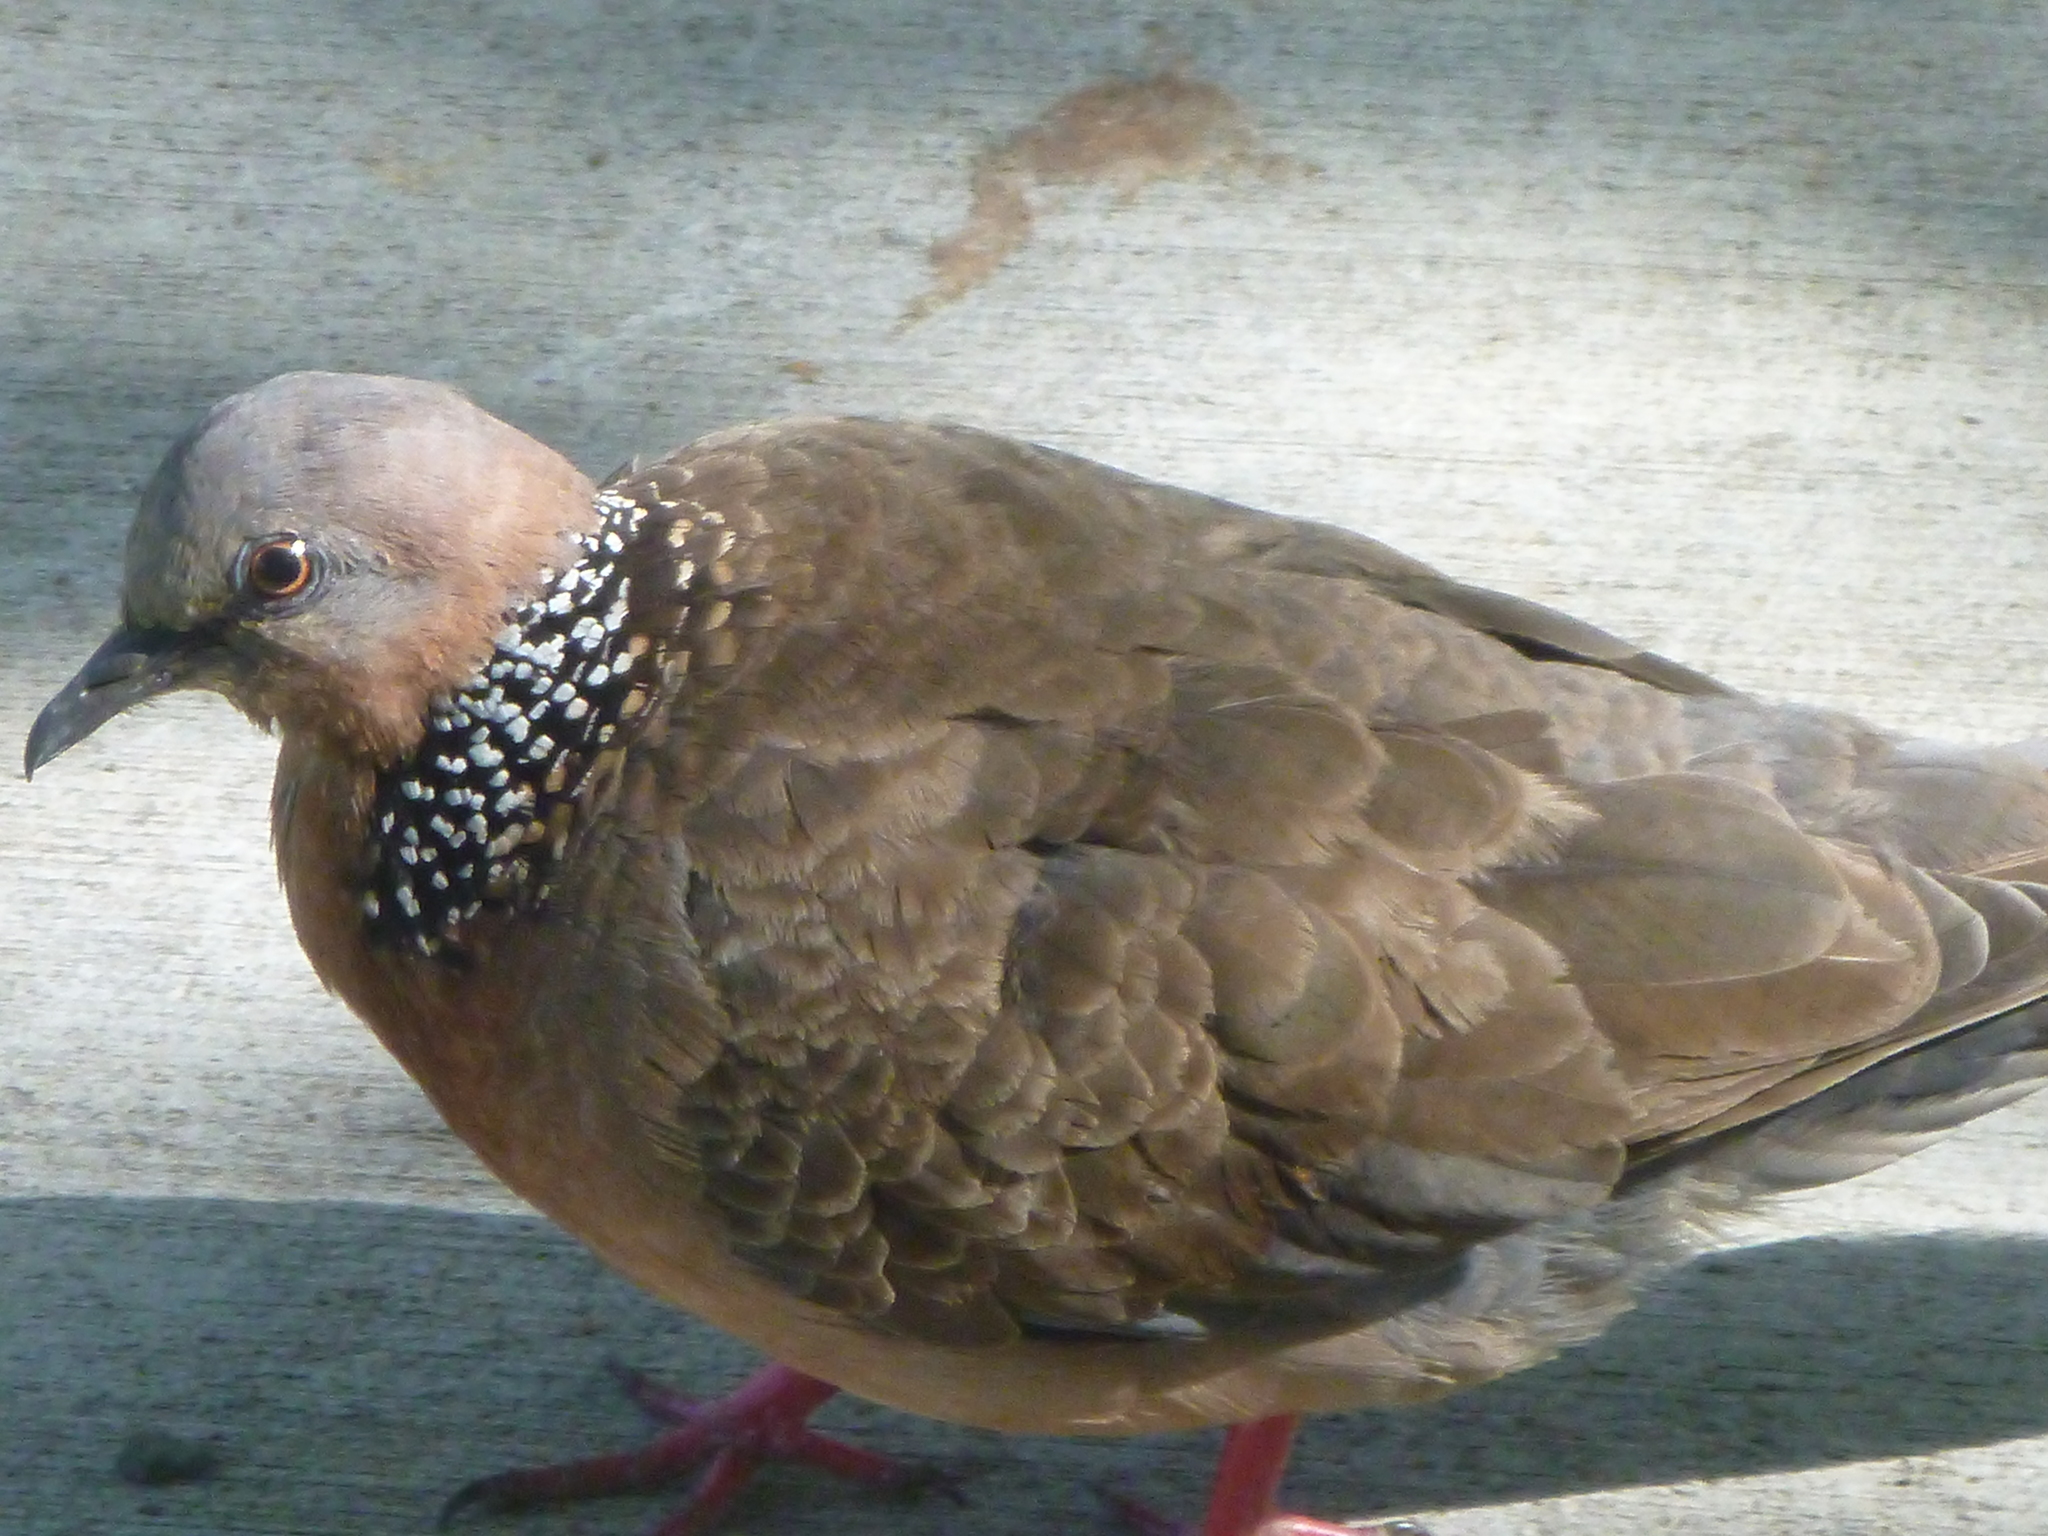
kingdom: Animalia
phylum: Chordata
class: Aves
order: Columbiformes
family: Columbidae
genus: Spilopelia
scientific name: Spilopelia chinensis
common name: Spotted dove
